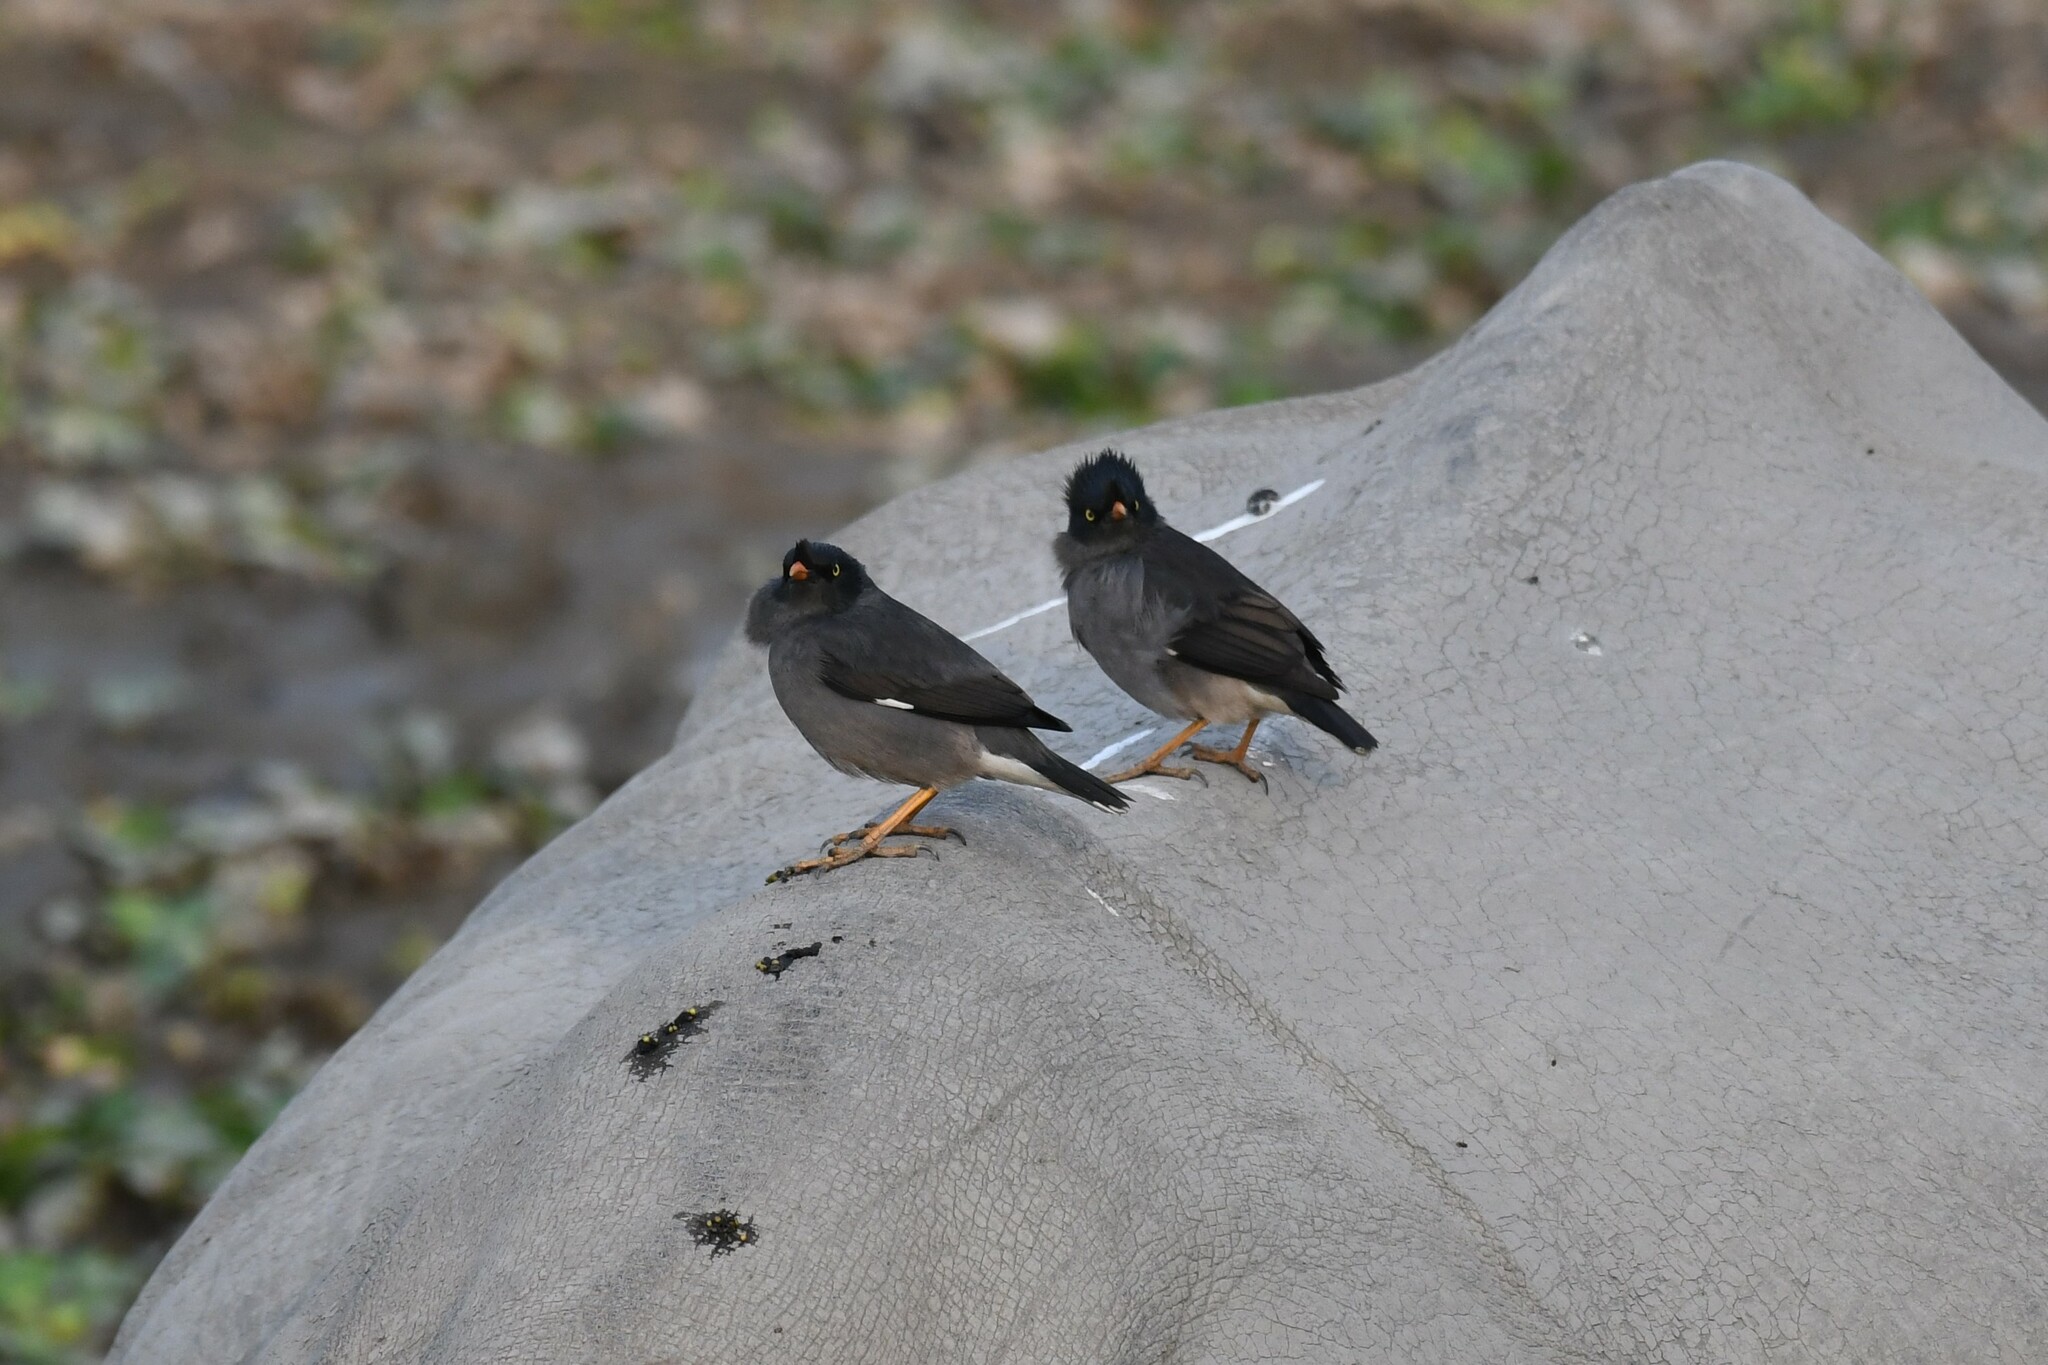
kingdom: Animalia
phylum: Chordata
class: Aves
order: Passeriformes
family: Sturnidae
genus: Acridotheres
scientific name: Acridotheres fuscus
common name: Jungle myna
